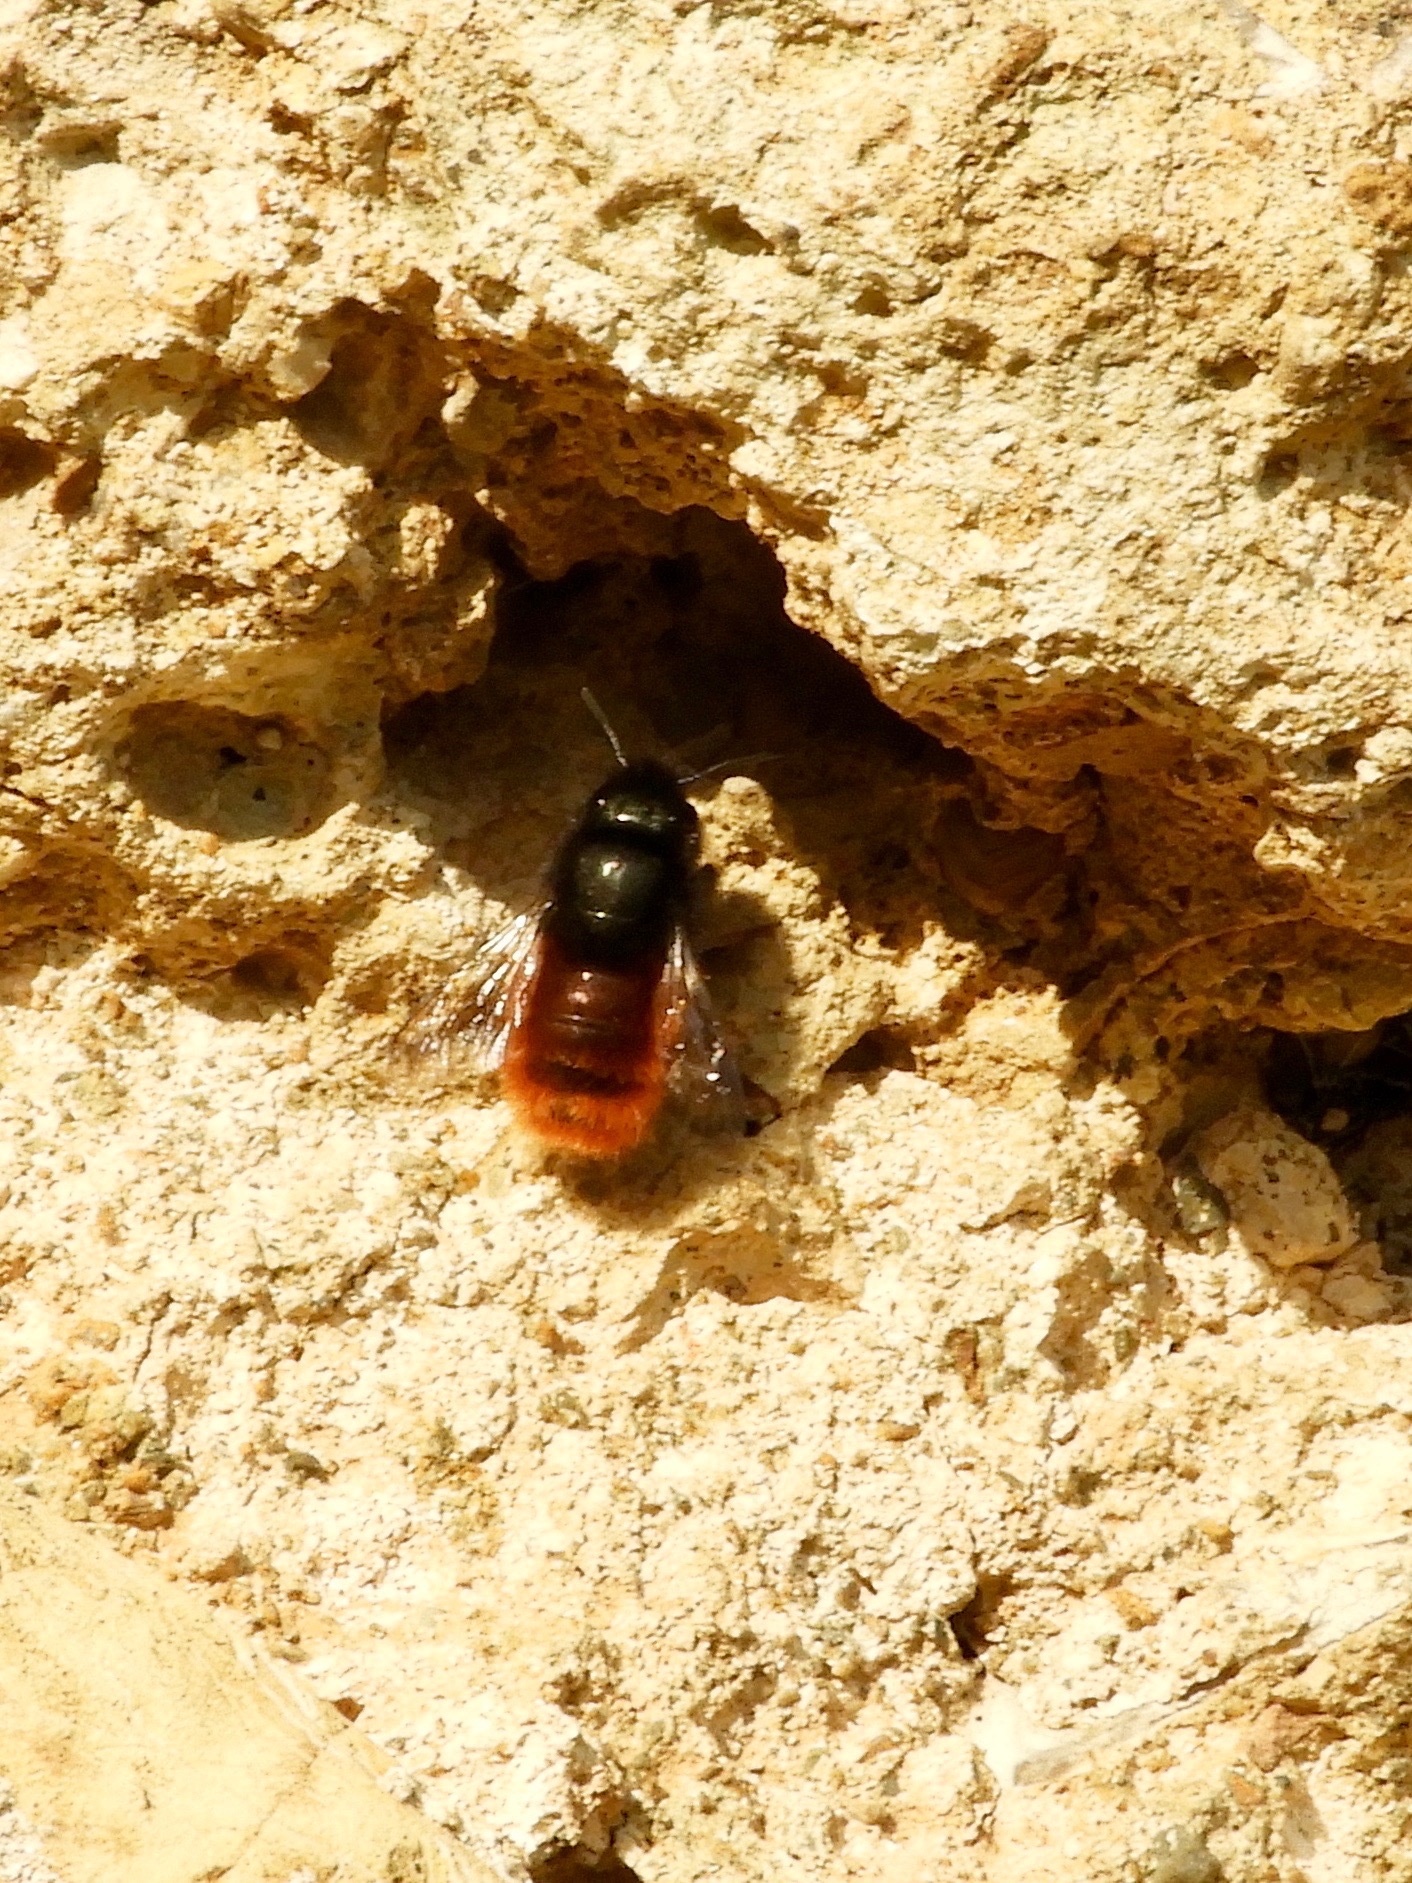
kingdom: Animalia
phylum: Arthropoda
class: Insecta
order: Hymenoptera
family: Megachilidae
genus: Osmia
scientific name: Osmia
